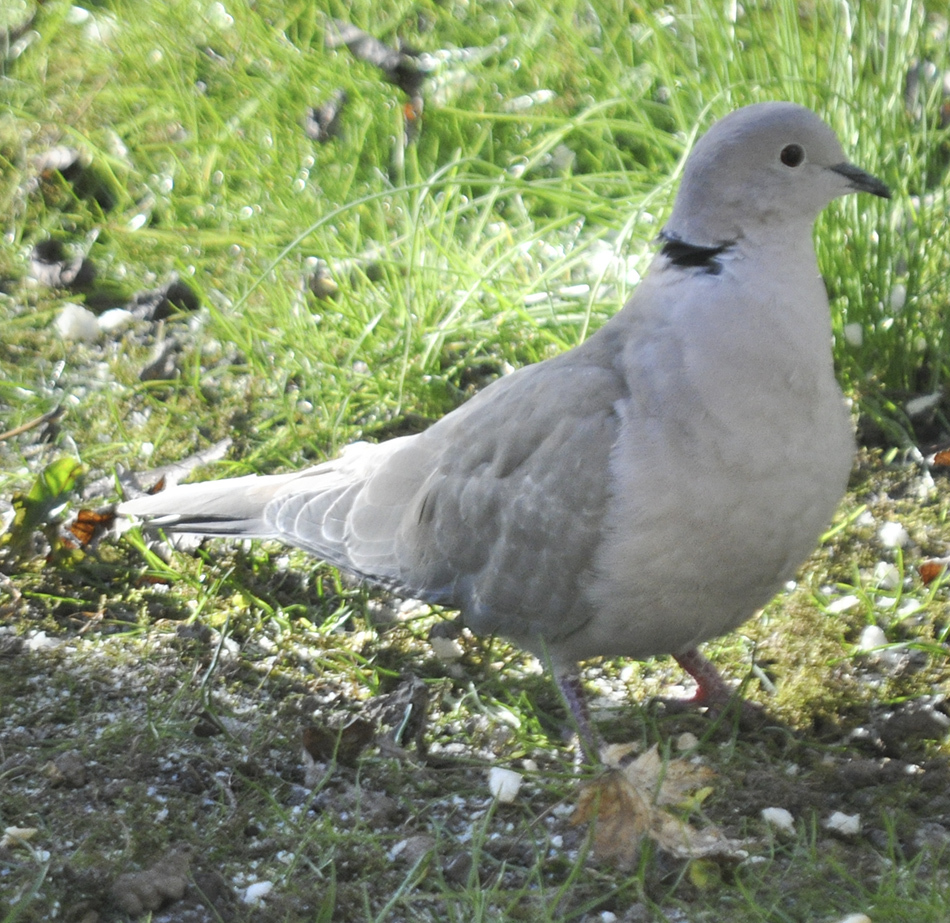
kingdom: Animalia
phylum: Chordata
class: Aves
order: Columbiformes
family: Columbidae
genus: Streptopelia
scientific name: Streptopelia decaocto
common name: Eurasian collared dove
